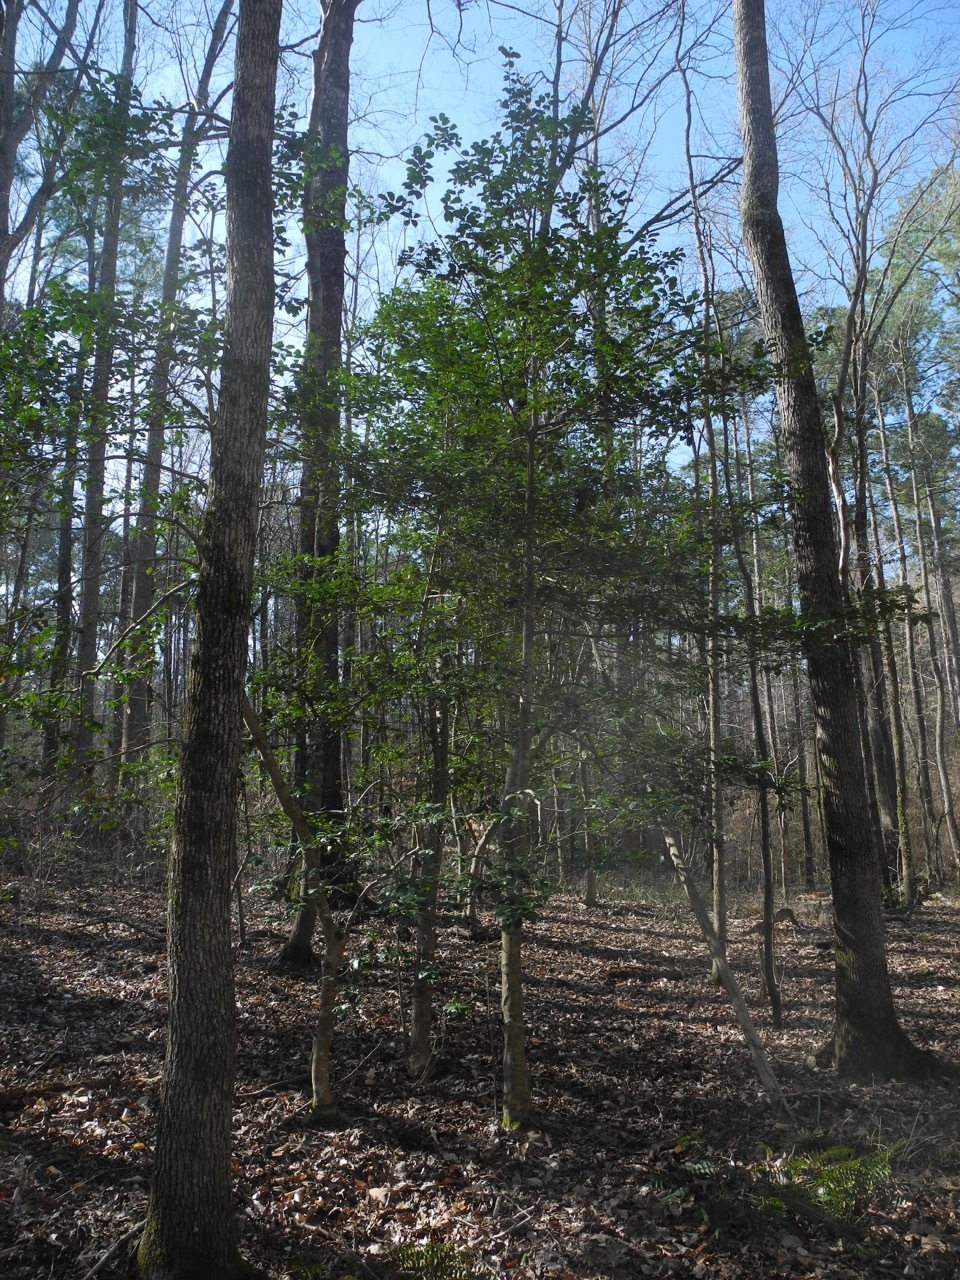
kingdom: Plantae
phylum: Tracheophyta
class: Magnoliopsida
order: Aquifoliales
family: Aquifoliaceae
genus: Ilex
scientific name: Ilex opaca
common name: American holly
